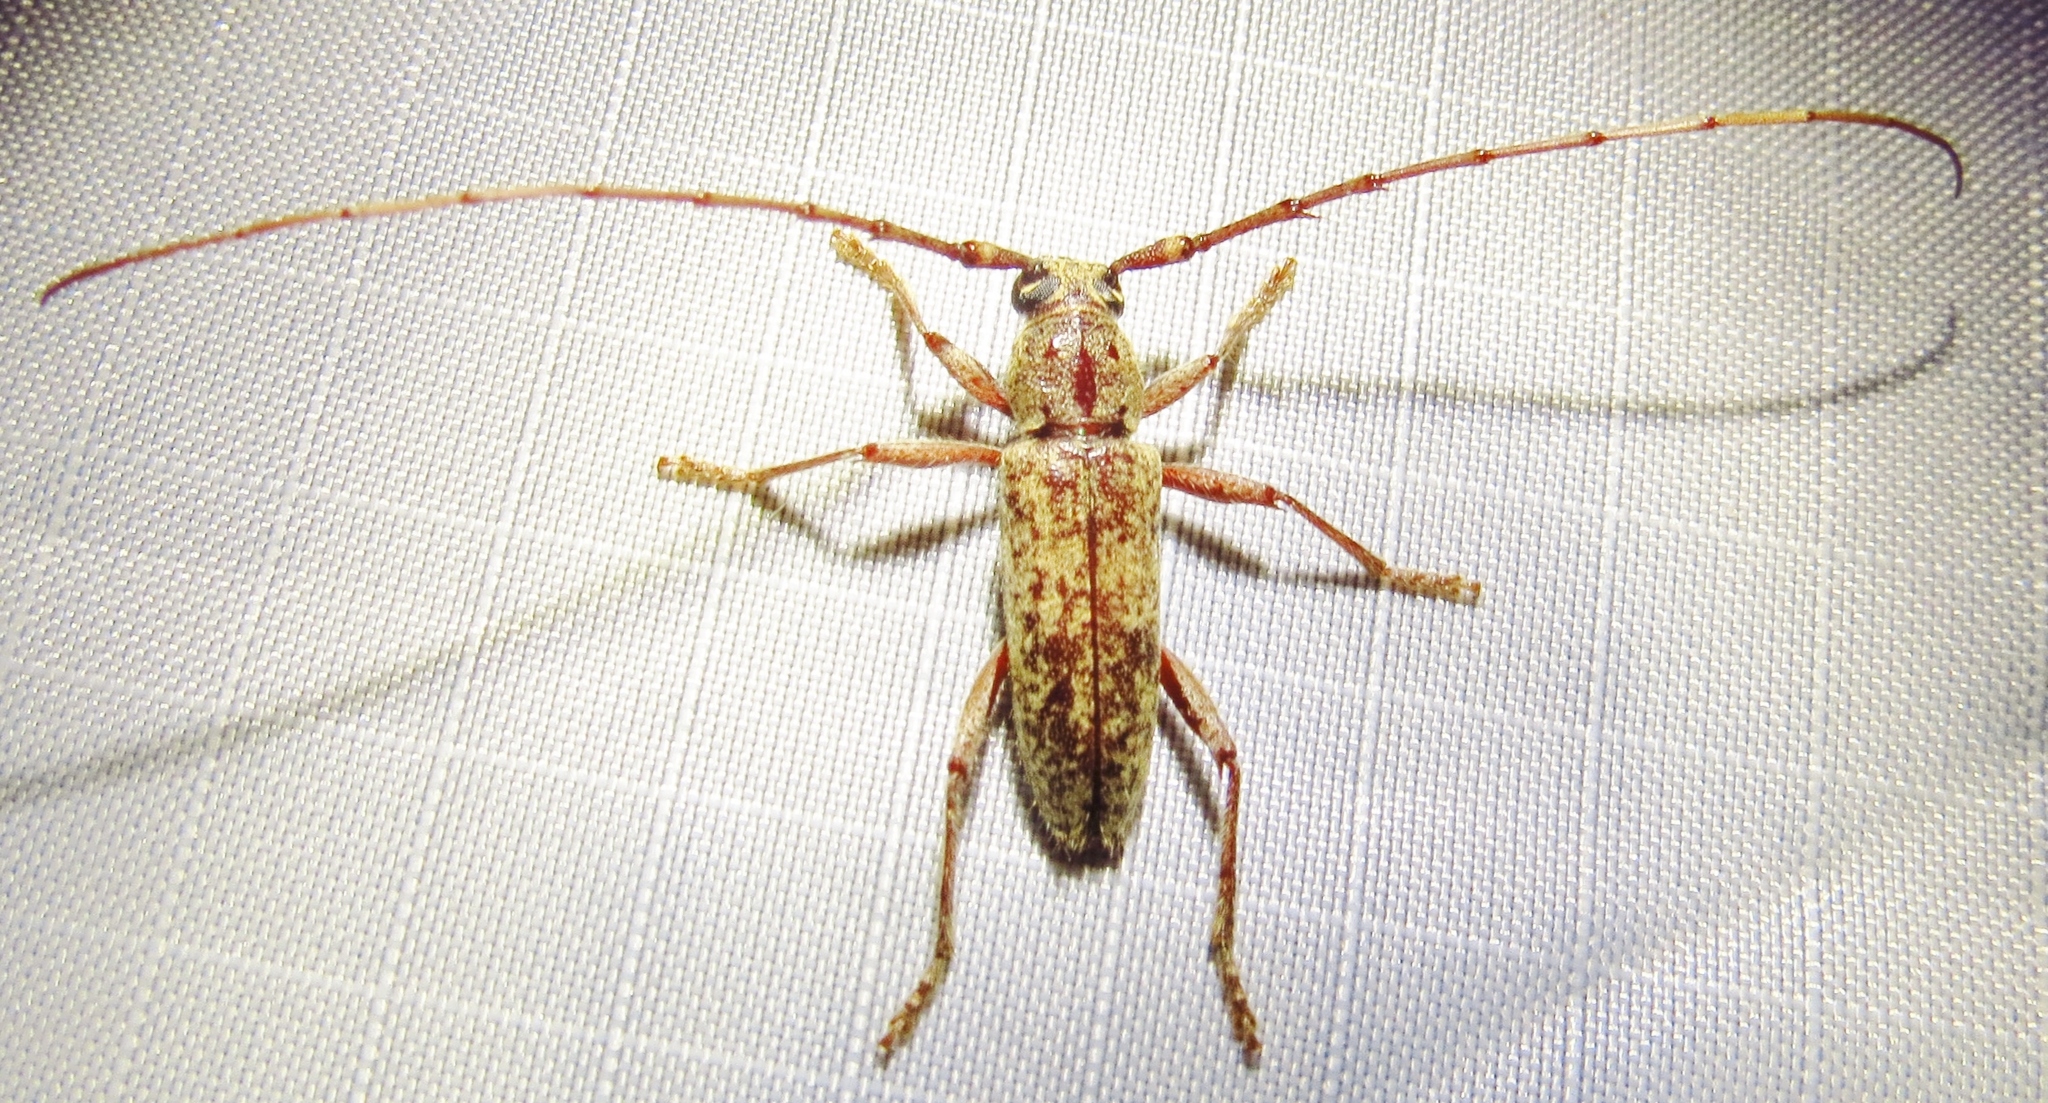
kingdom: Animalia
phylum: Arthropoda
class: Insecta
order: Coleoptera
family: Cerambycidae
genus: Elaphidion
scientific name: Elaphidion mucronatum
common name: Spined oak borer
